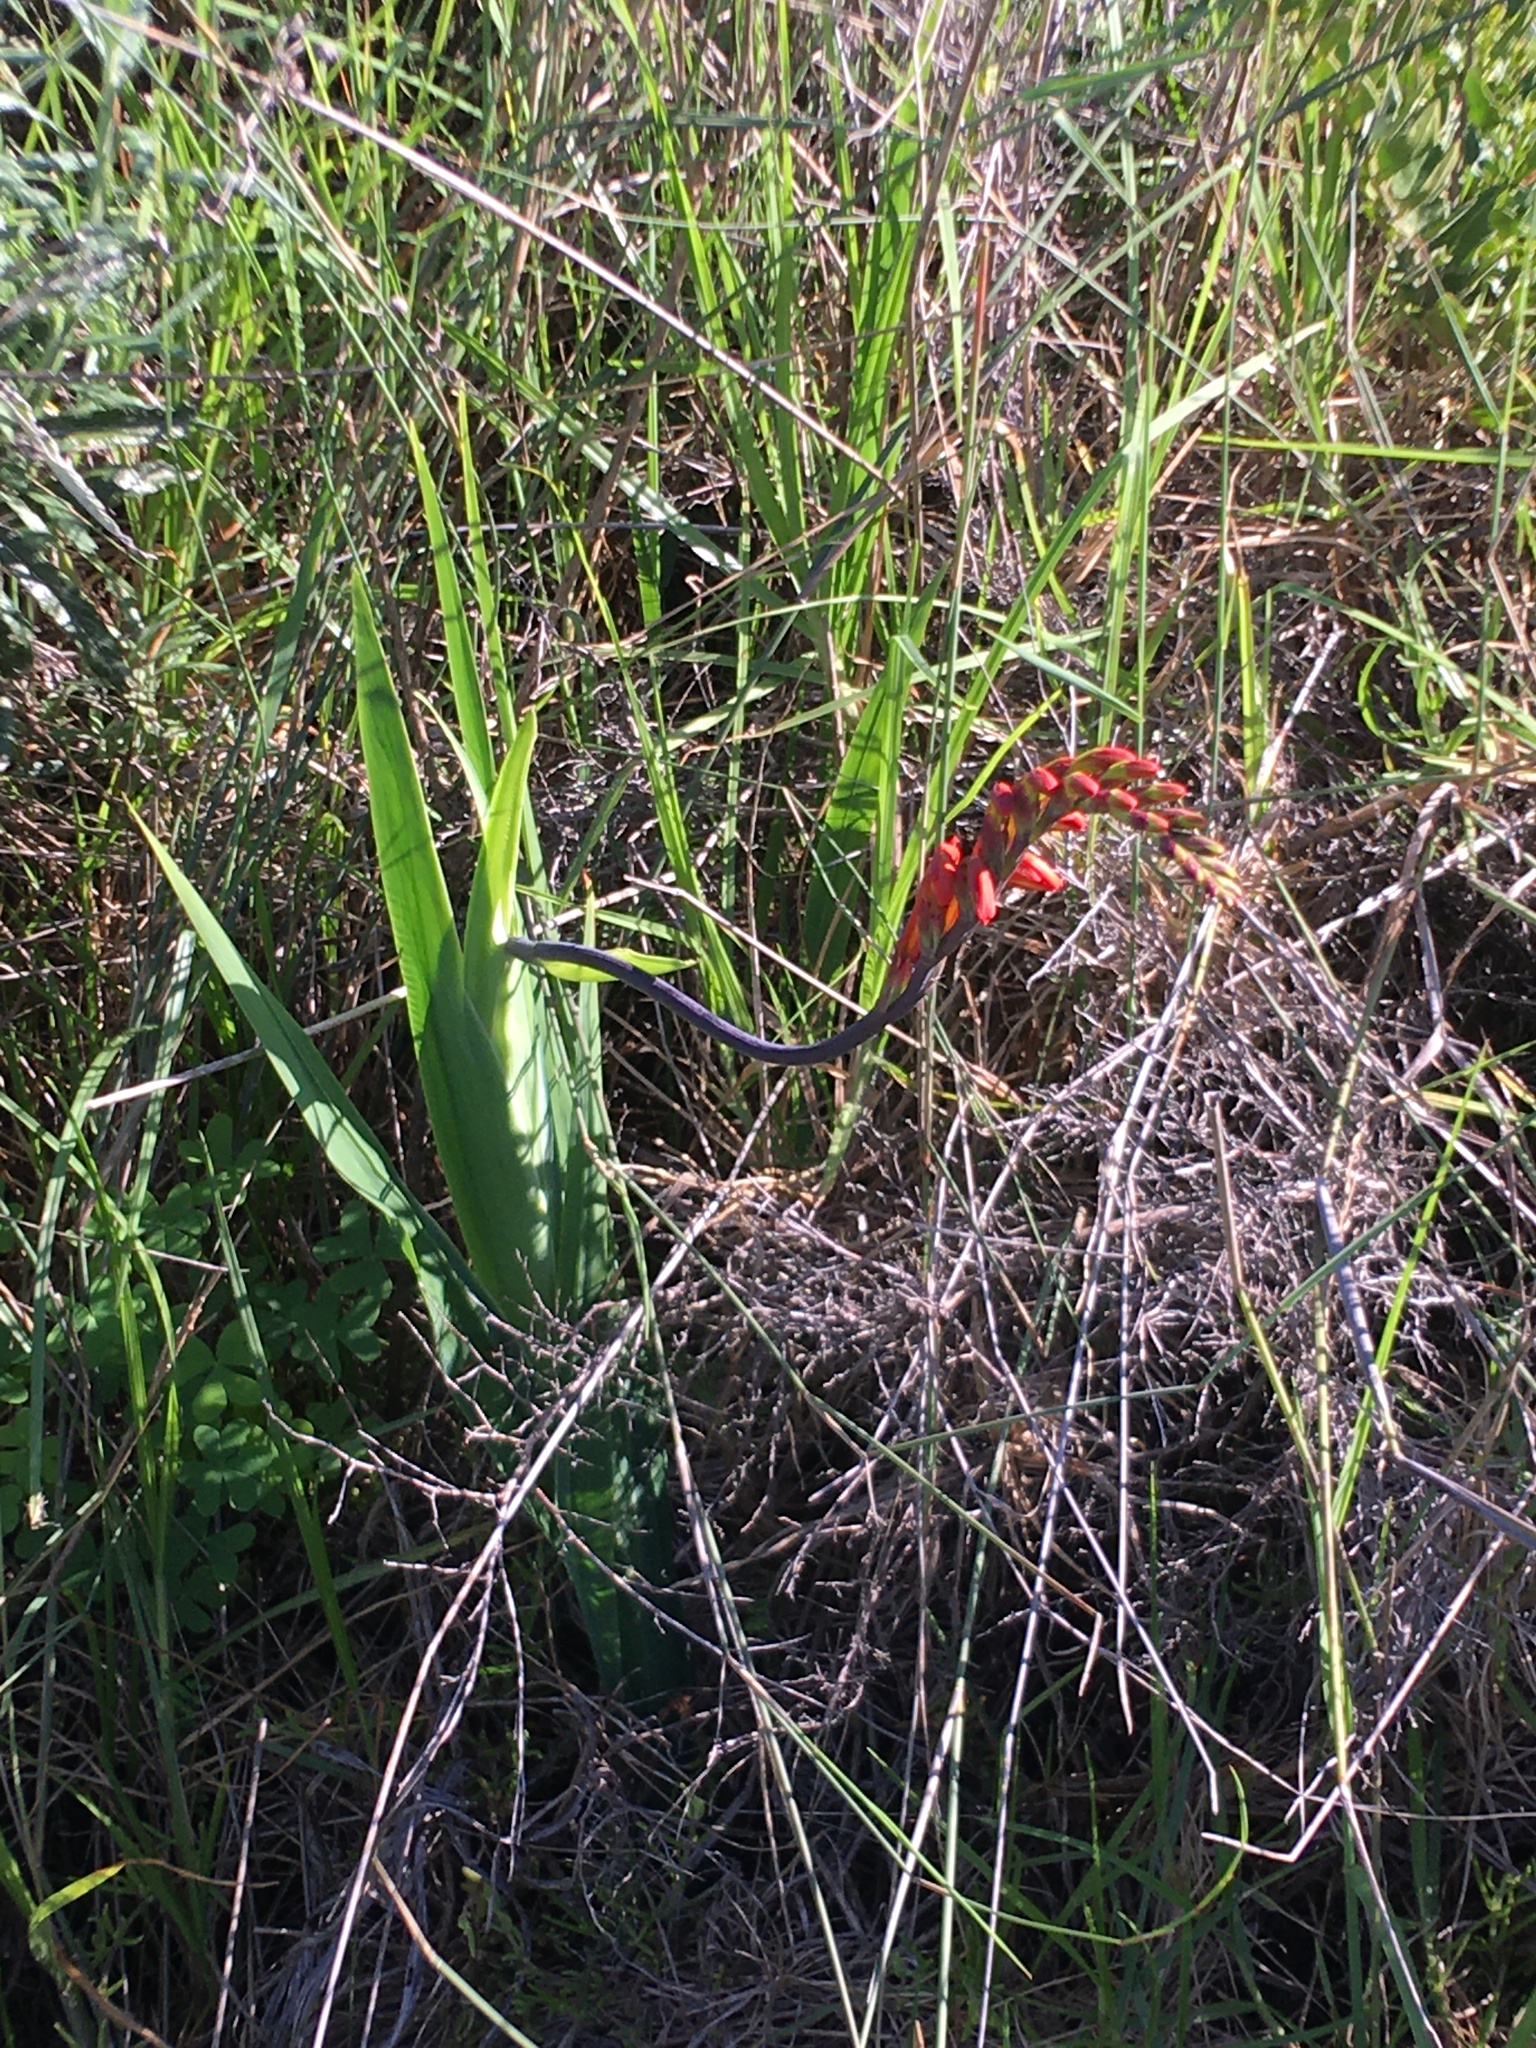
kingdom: Plantae
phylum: Tracheophyta
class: Liliopsida
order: Asparagales
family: Iridaceae
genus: Chasmanthe
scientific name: Chasmanthe aethiopica
